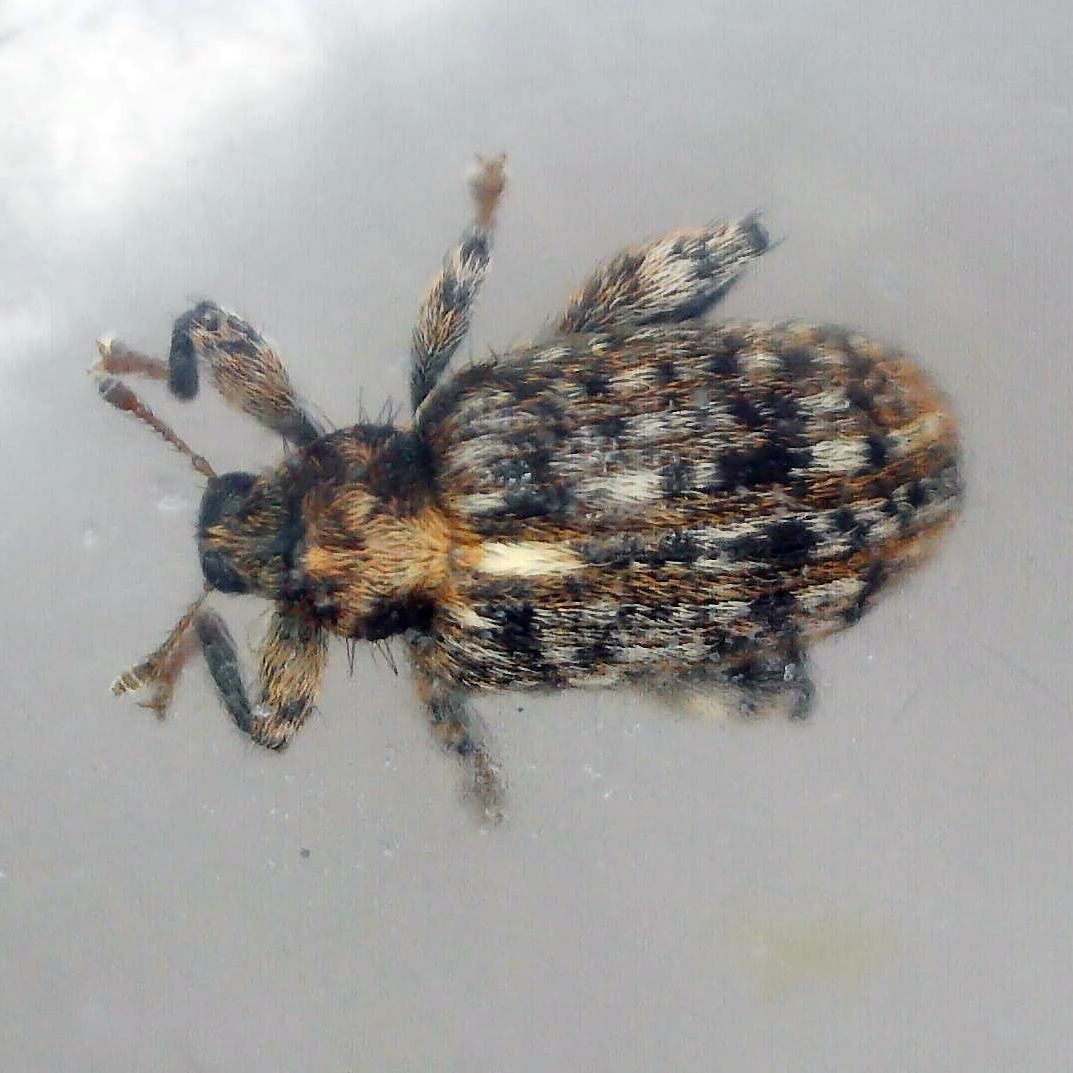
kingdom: Animalia
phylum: Arthropoda
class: Insecta
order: Coleoptera
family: Curculionidae
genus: Orchestes
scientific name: Orchestes pilosus
